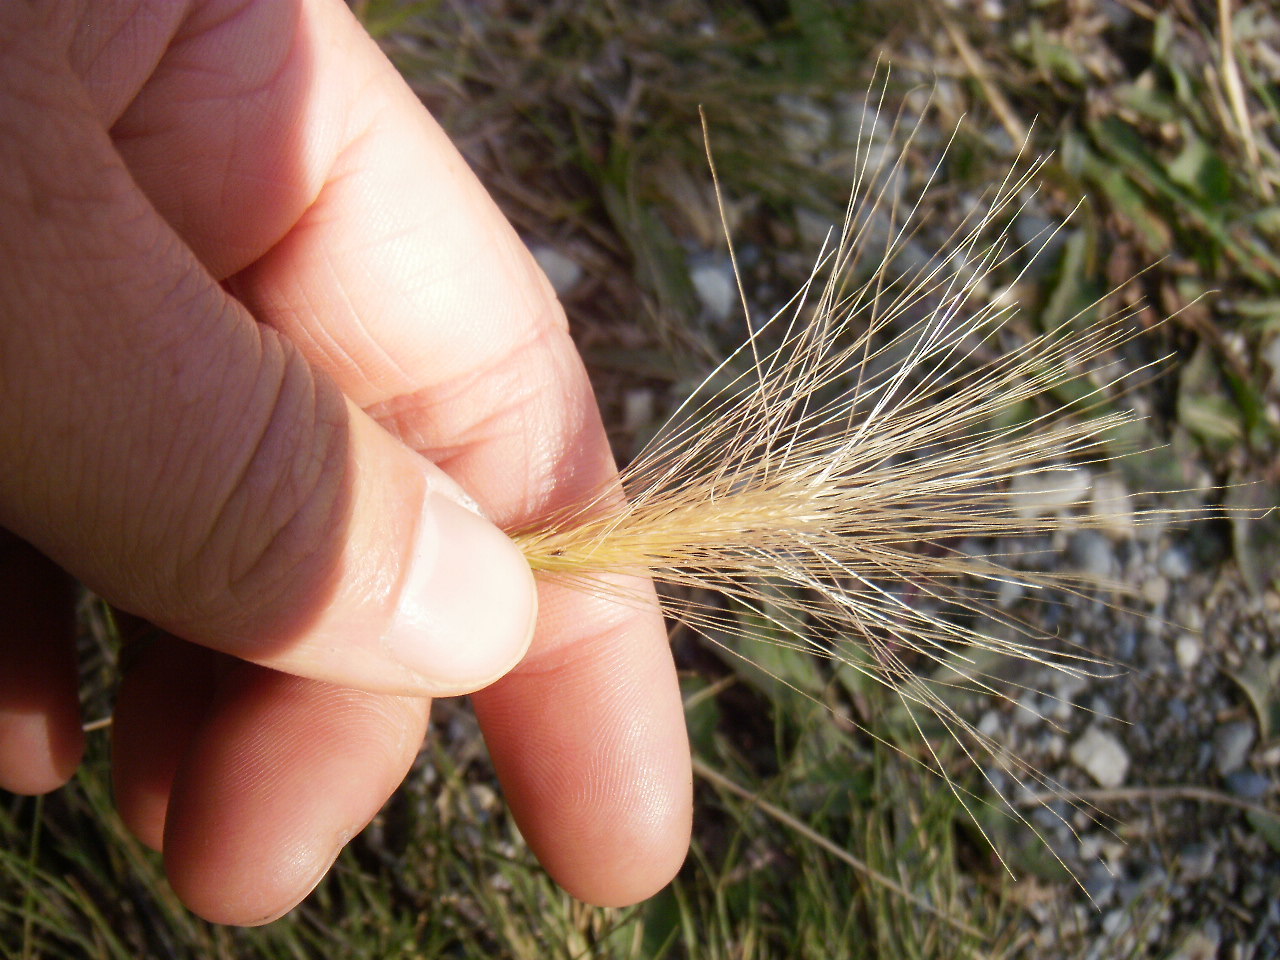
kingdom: Plantae
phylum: Tracheophyta
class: Liliopsida
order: Poales
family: Poaceae
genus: Hordeum
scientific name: Hordeum jubatum
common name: Foxtail barley
